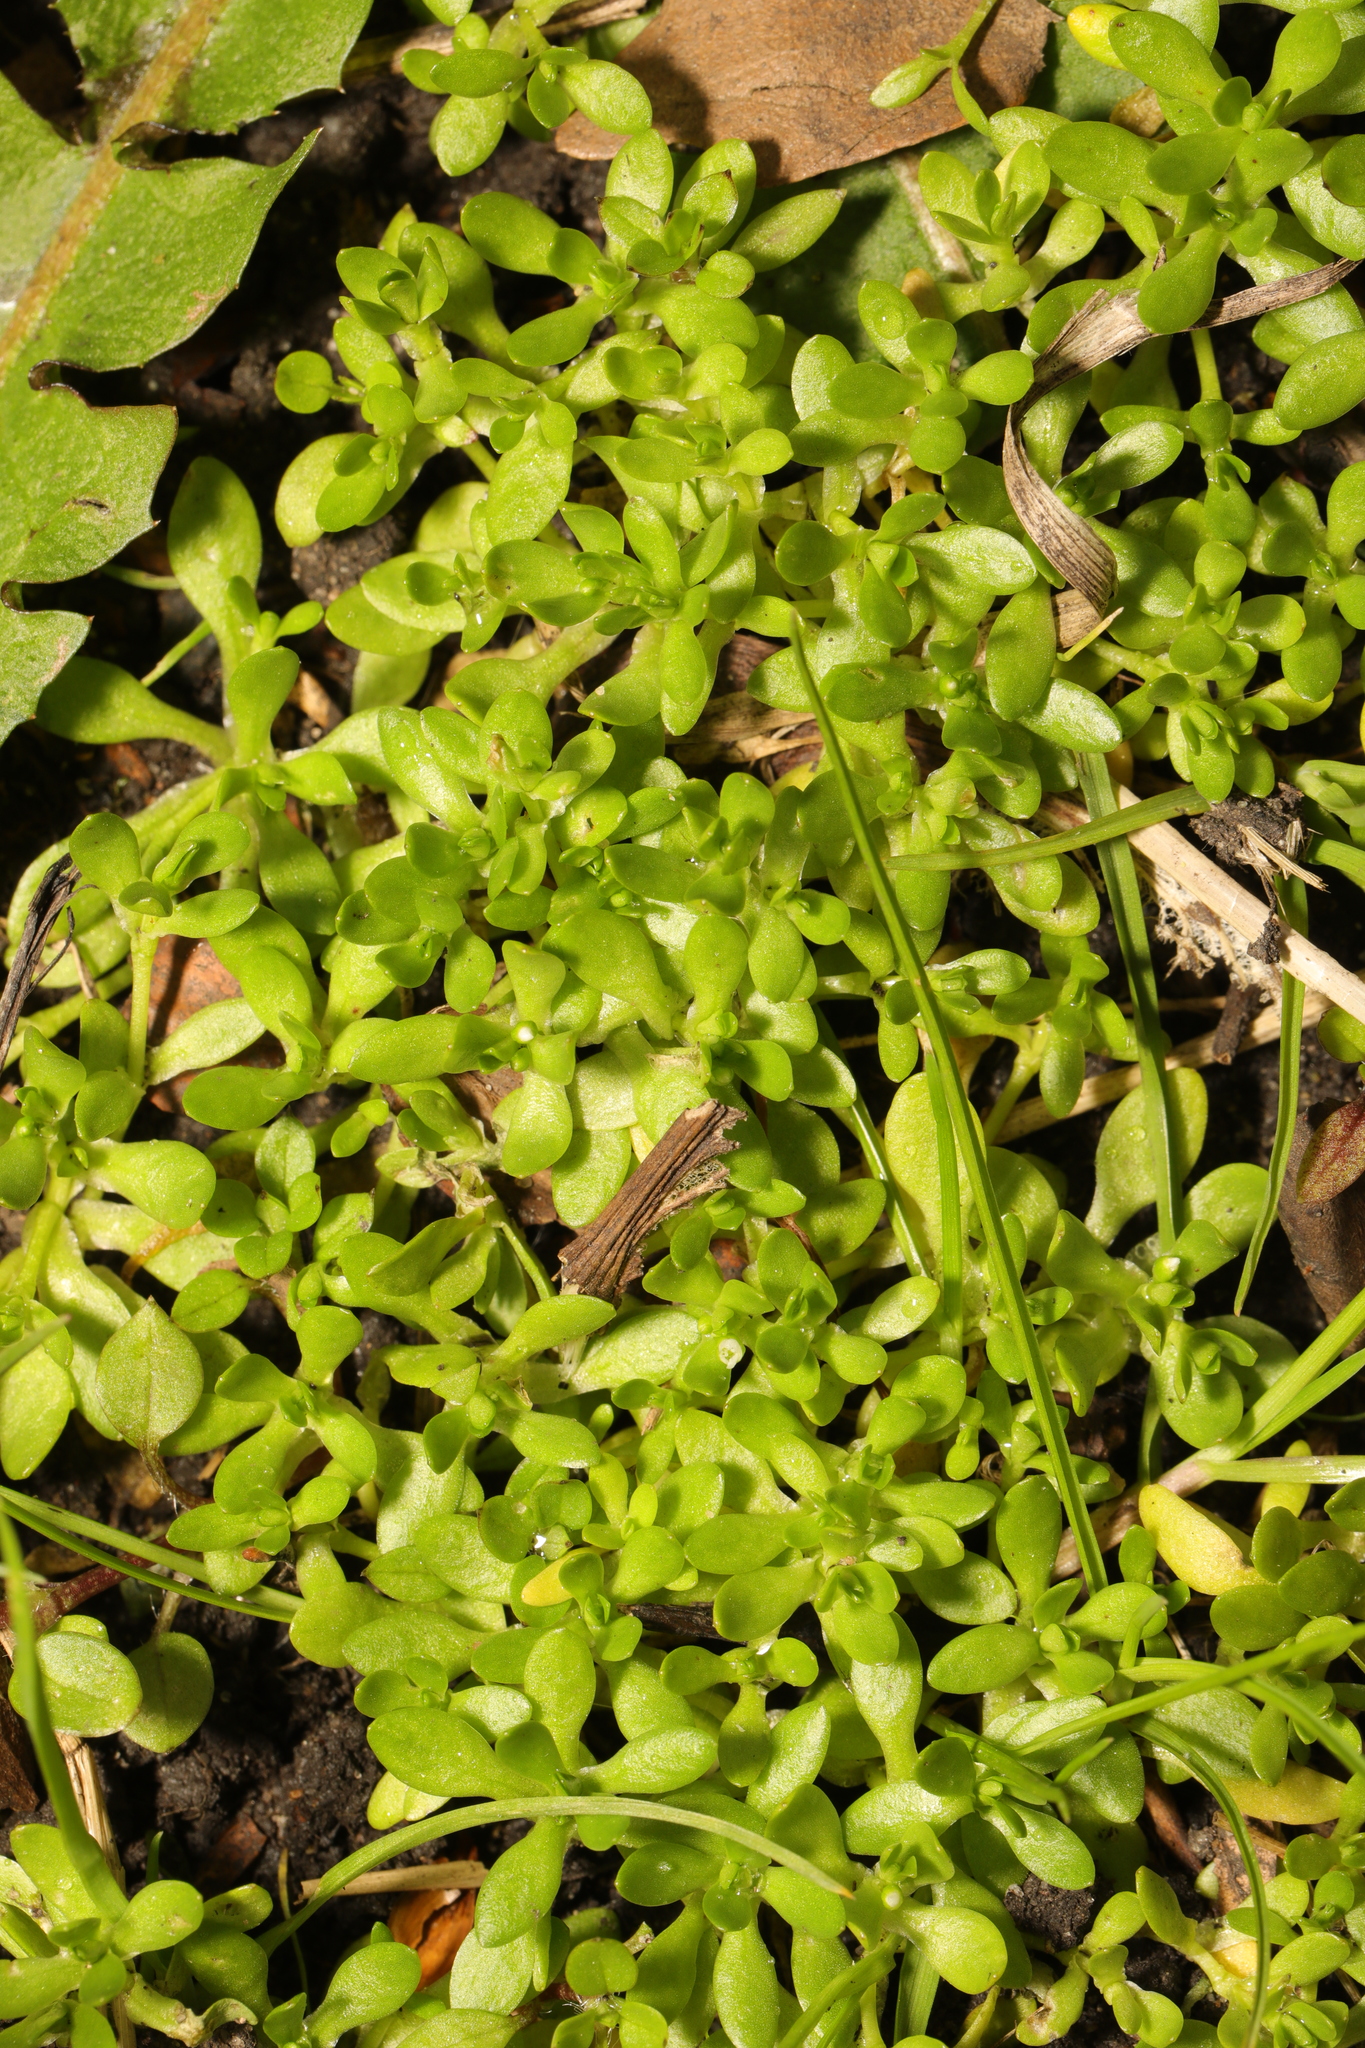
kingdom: Plantae
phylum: Tracheophyta
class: Magnoliopsida
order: Caryophyllales
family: Montiaceae
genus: Montia
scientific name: Montia fontana
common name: Blinks
